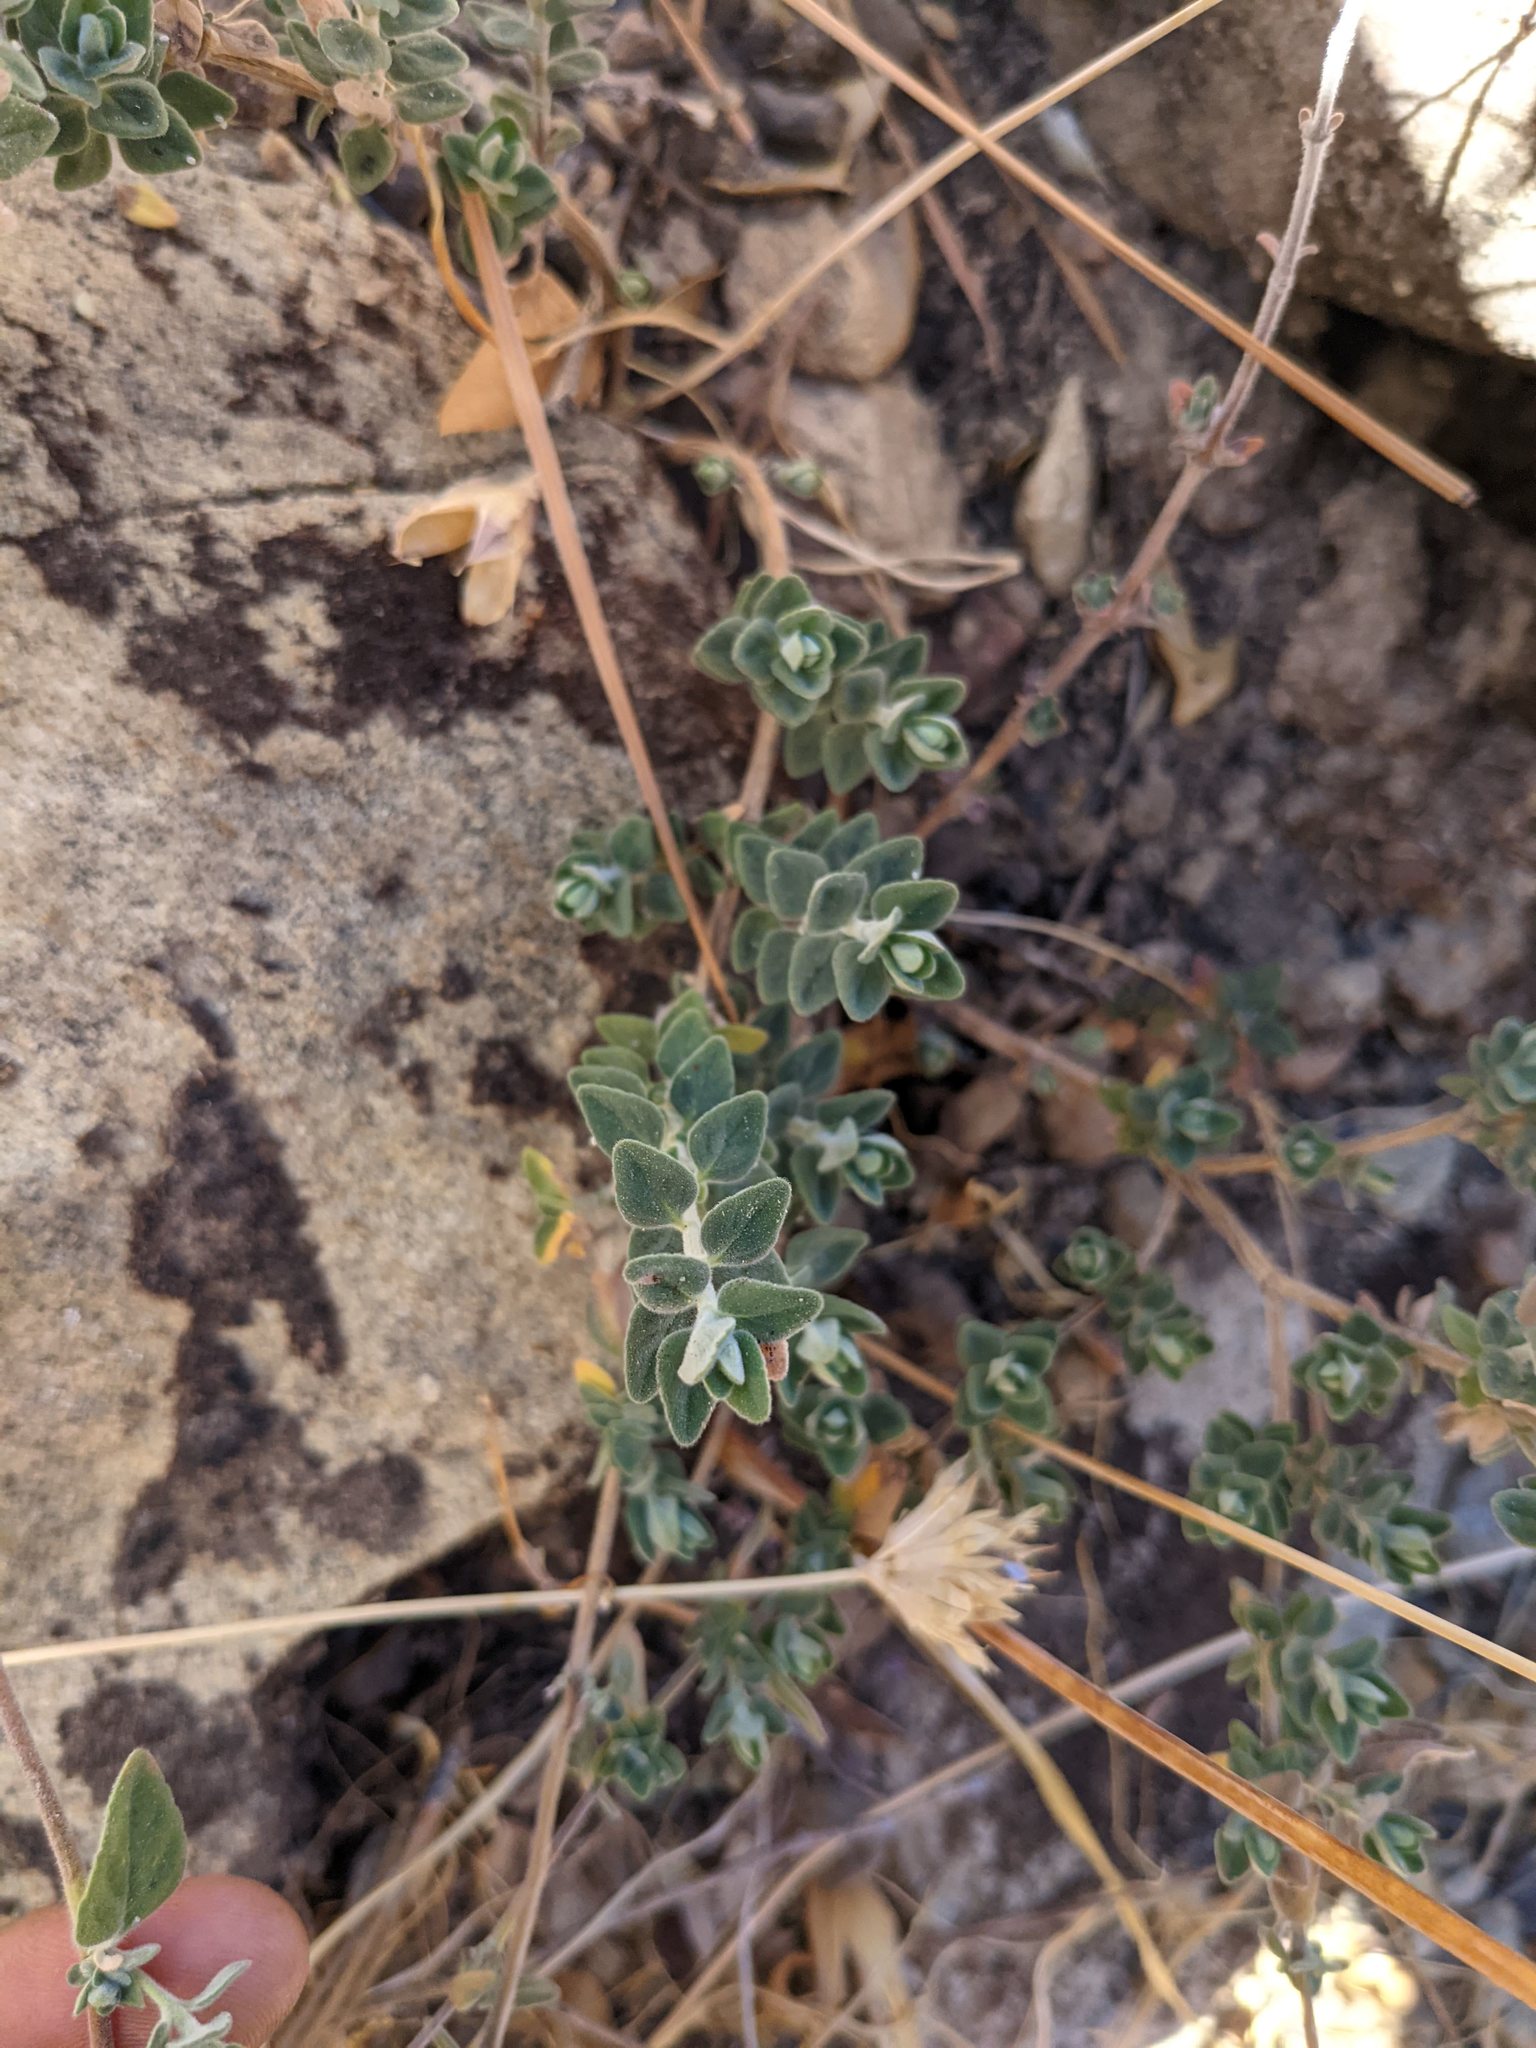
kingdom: Plantae
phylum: Tracheophyta
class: Magnoliopsida
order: Lamiales
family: Lamiaceae
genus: Monardella
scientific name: Monardella odoratissima
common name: Pacific monardella
